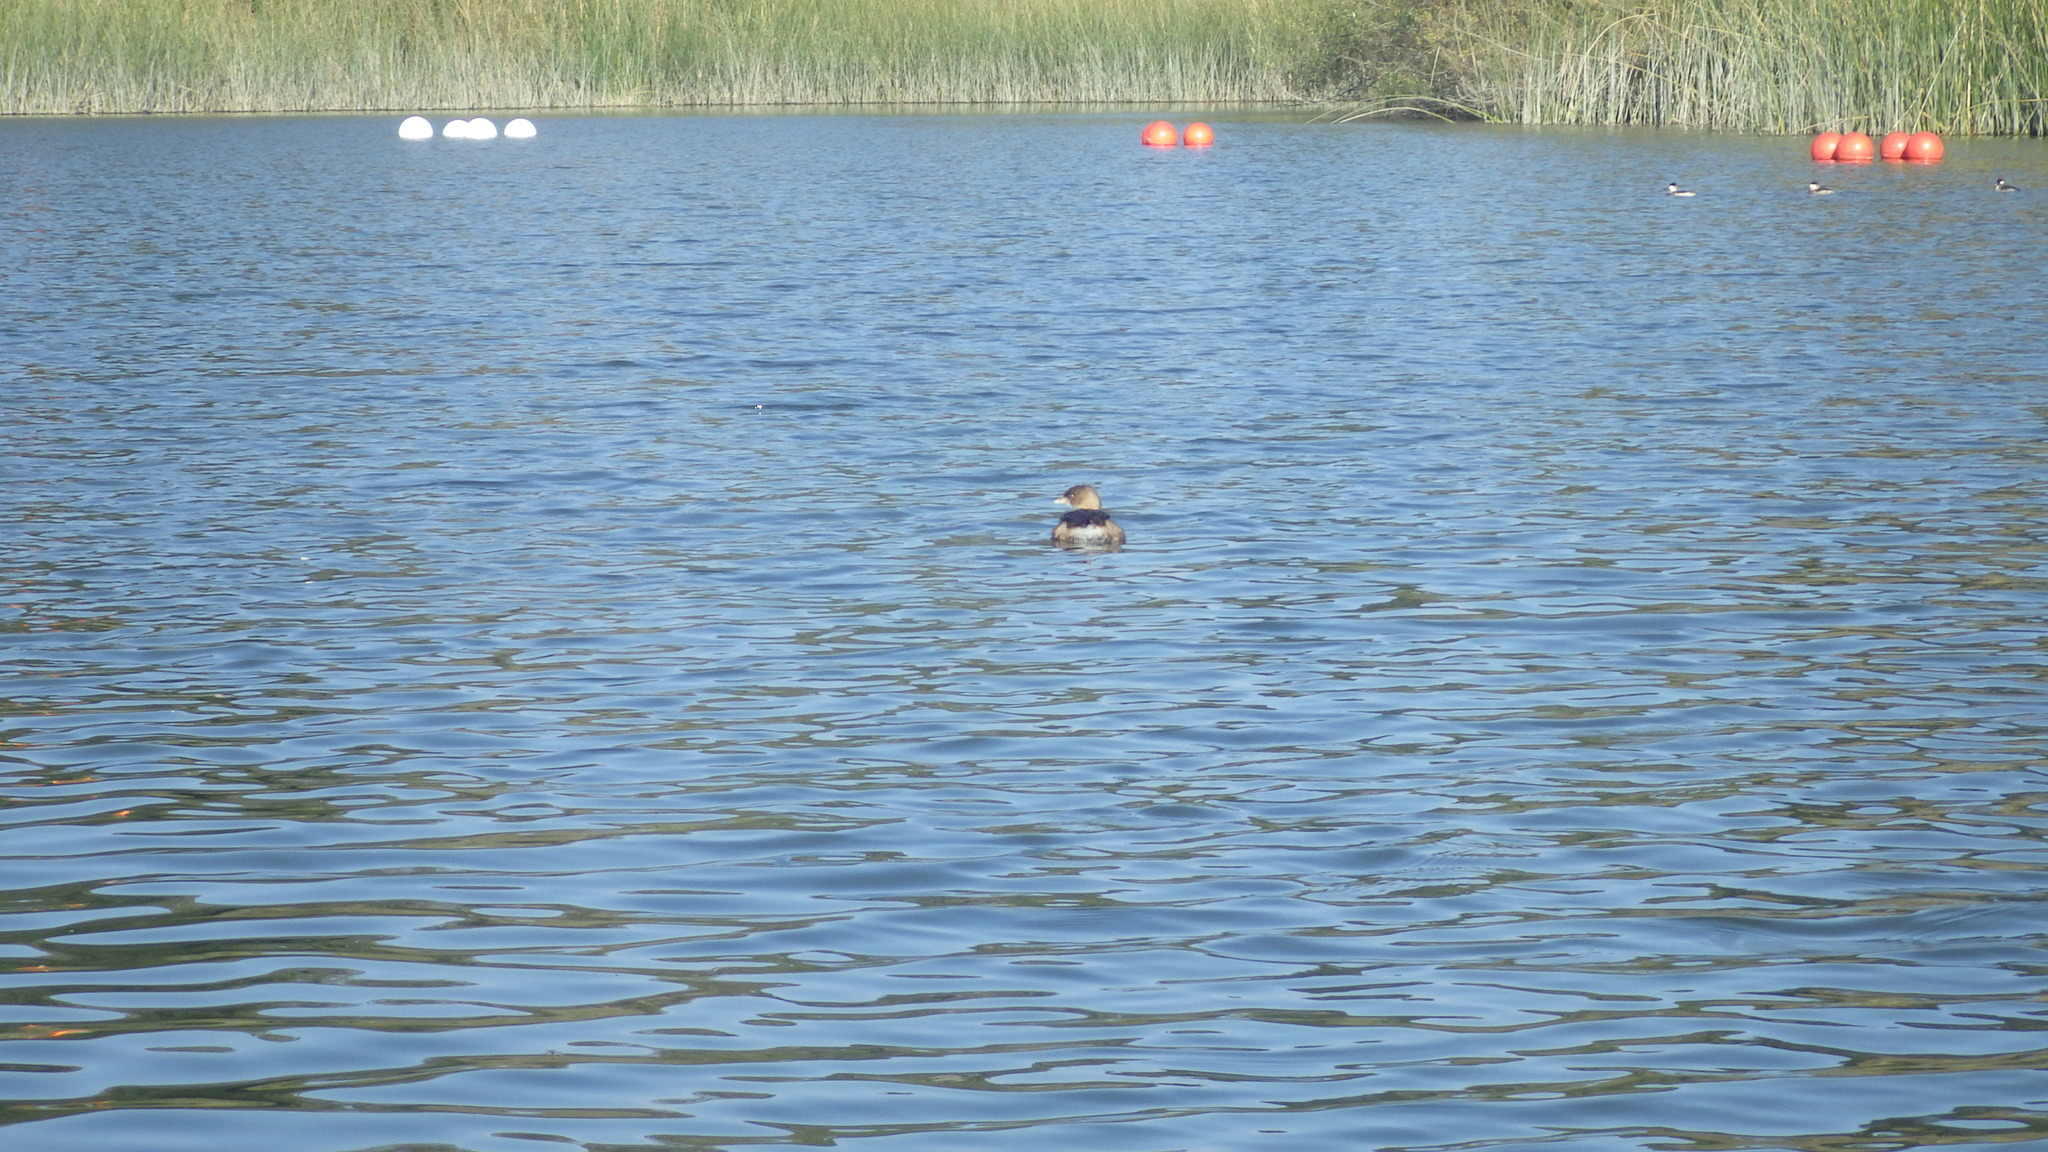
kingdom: Animalia
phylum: Chordata
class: Aves
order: Podicipediformes
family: Podicipedidae
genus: Podilymbus
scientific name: Podilymbus podiceps
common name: Pied-billed grebe
